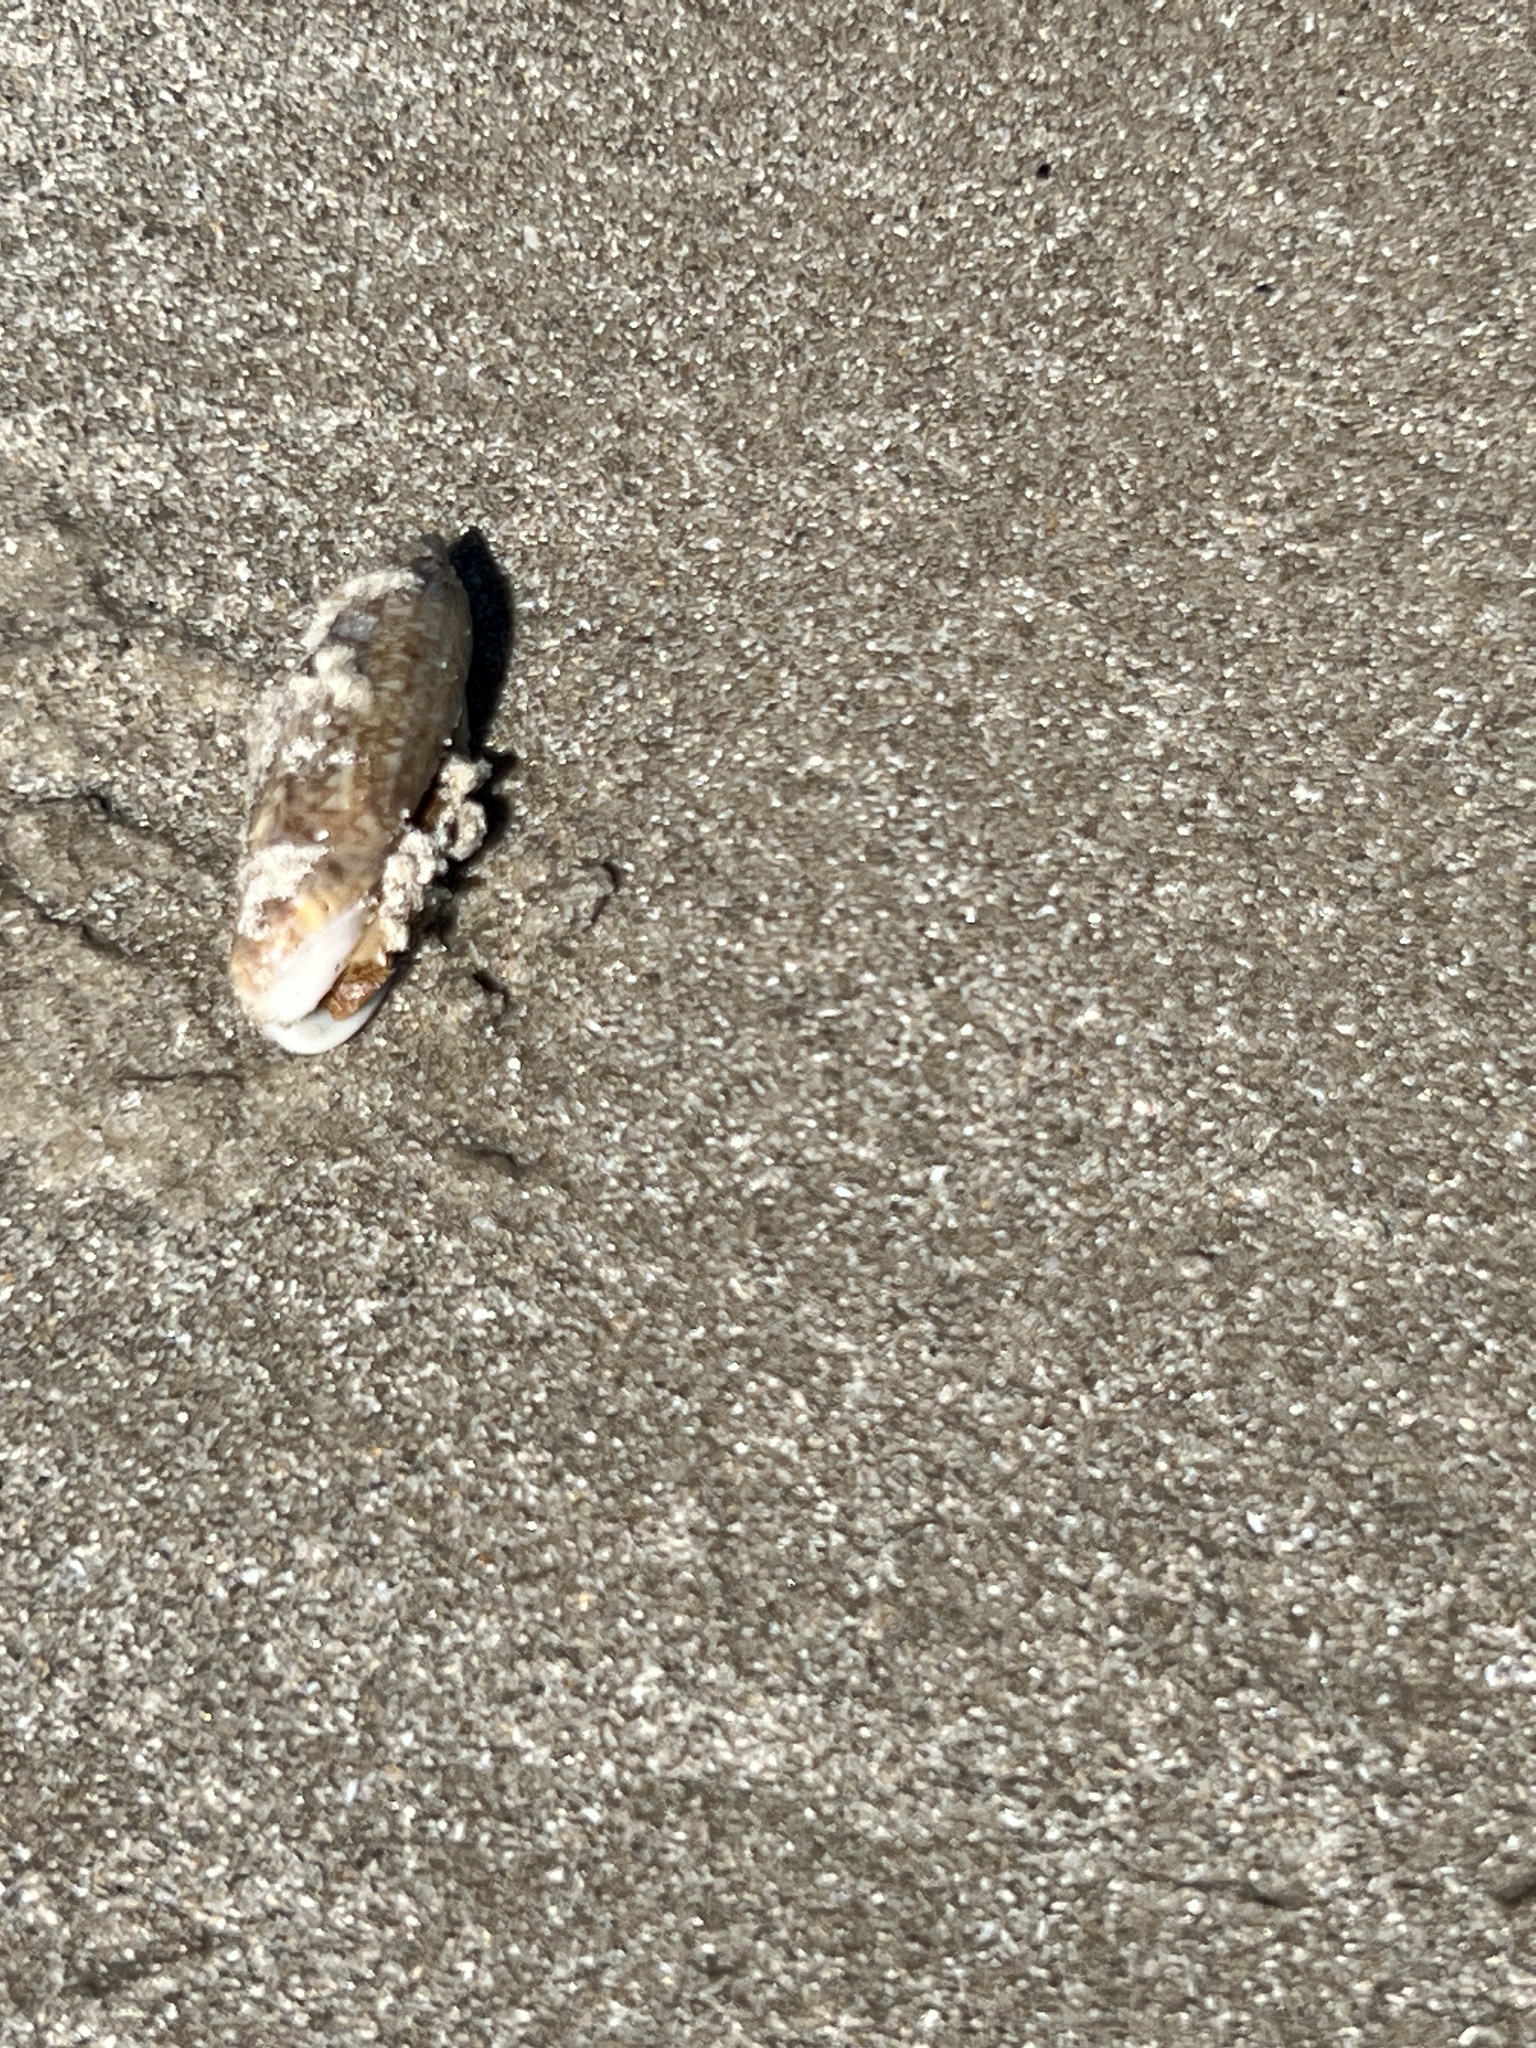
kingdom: Animalia
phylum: Mollusca
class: Gastropoda
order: Neogastropoda
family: Olividae
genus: Oliva
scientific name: Oliva sayana
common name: Lettered olive
